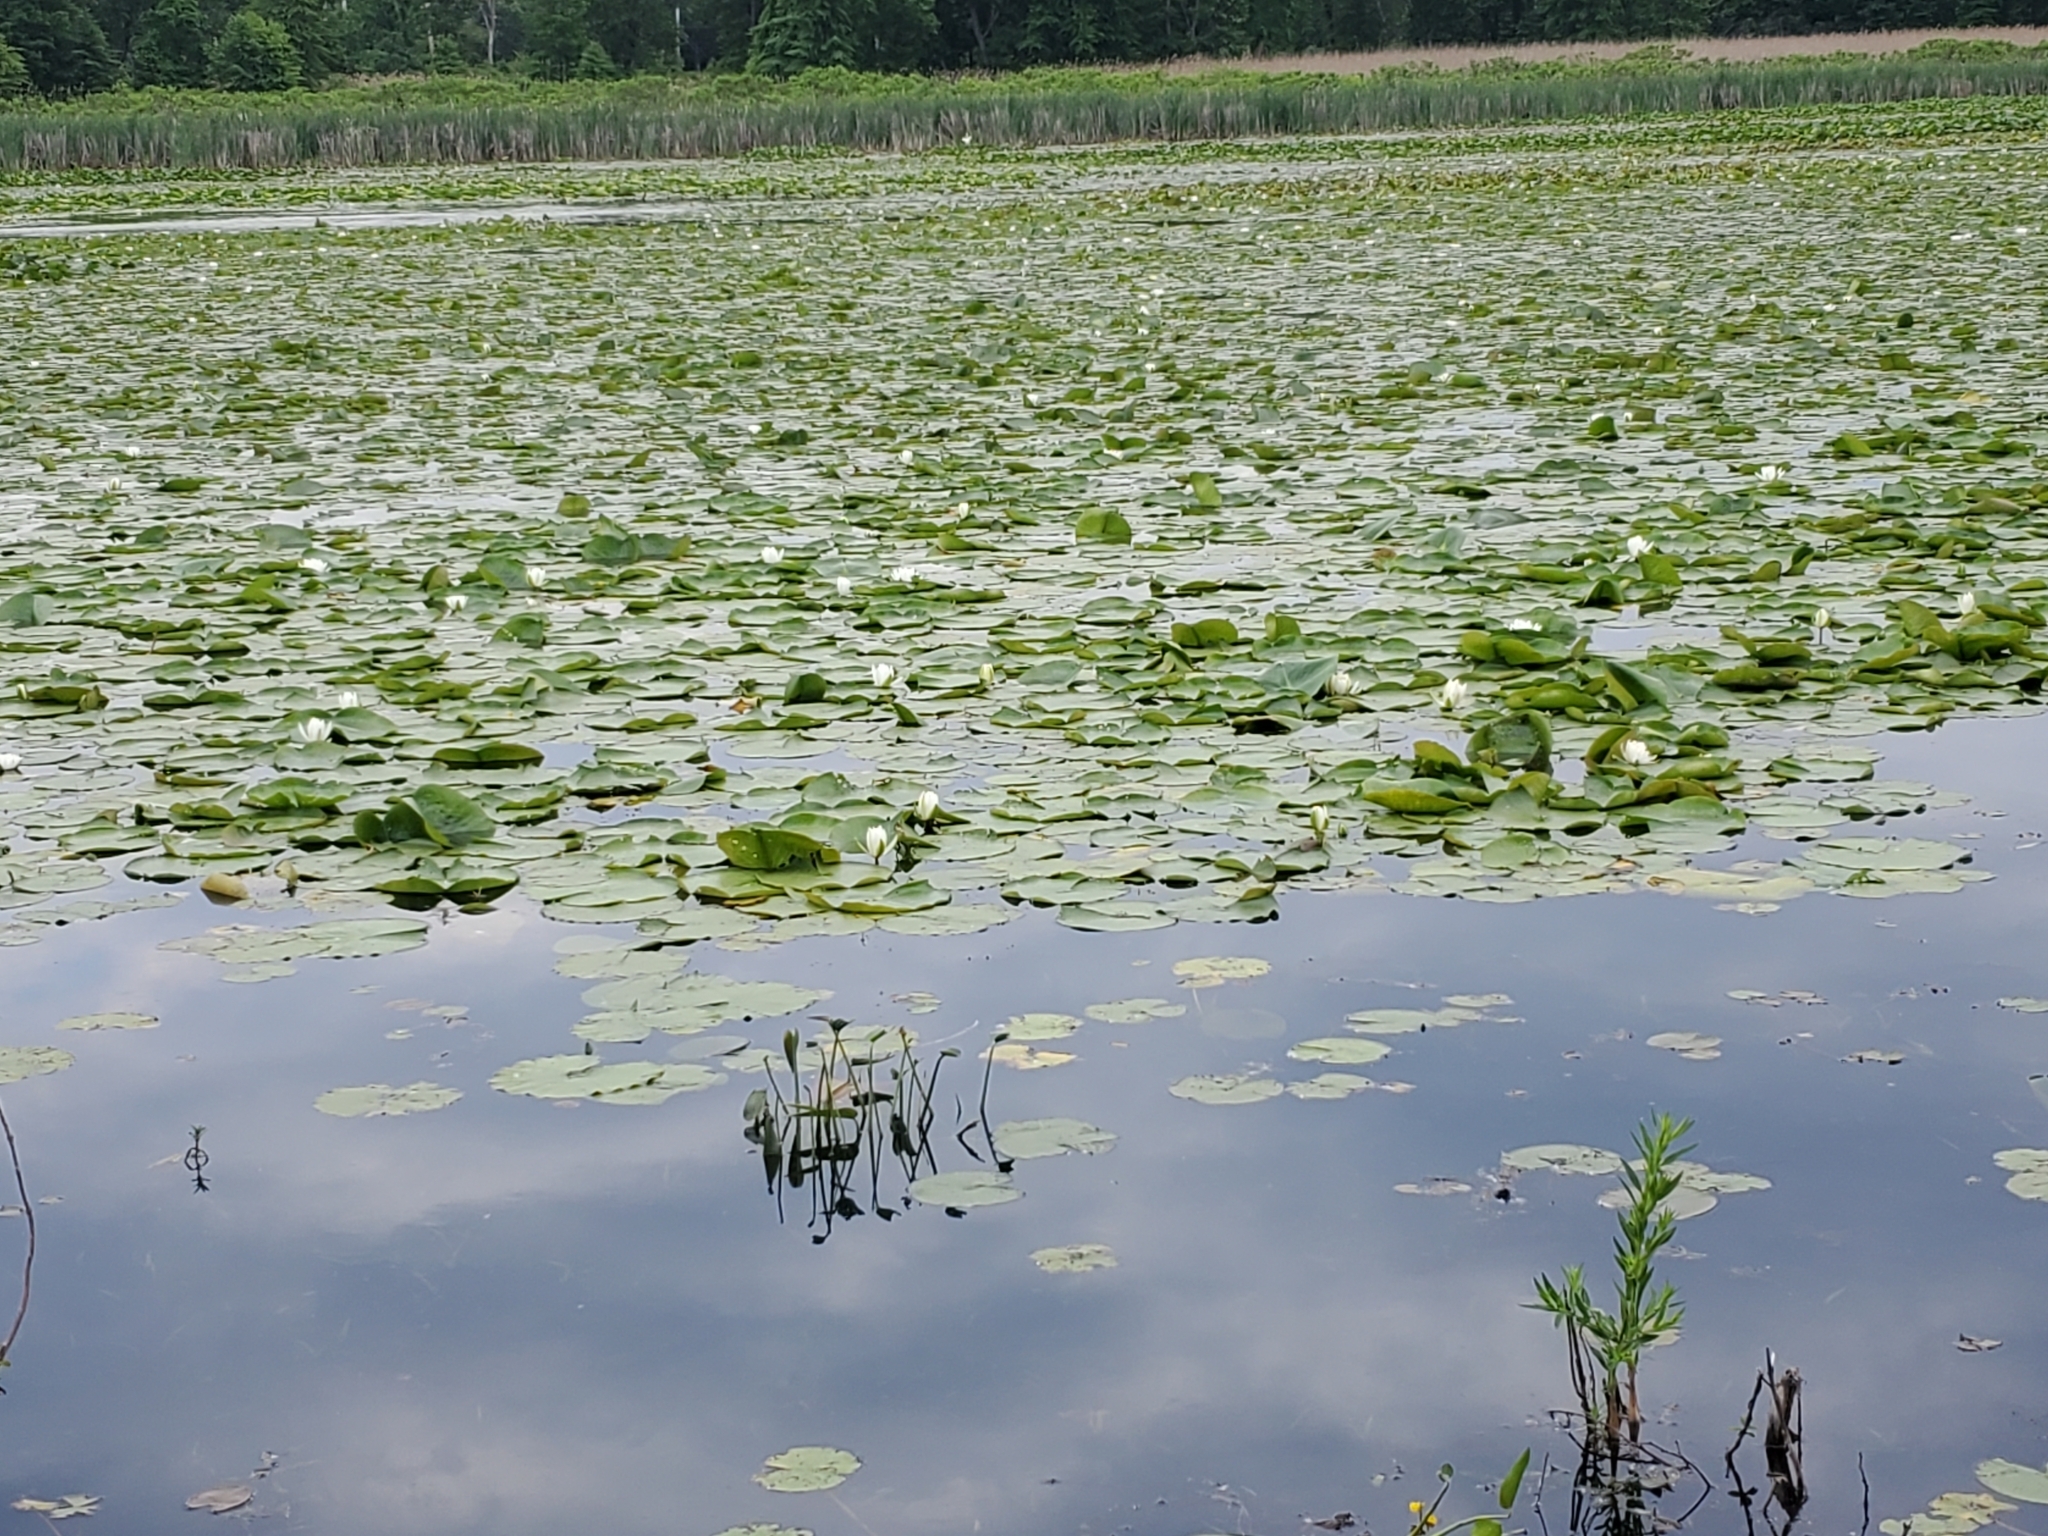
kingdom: Plantae
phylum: Tracheophyta
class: Magnoliopsida
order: Nymphaeales
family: Nymphaeaceae
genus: Nymphaea
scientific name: Nymphaea odorata
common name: Fragrant water-lily
